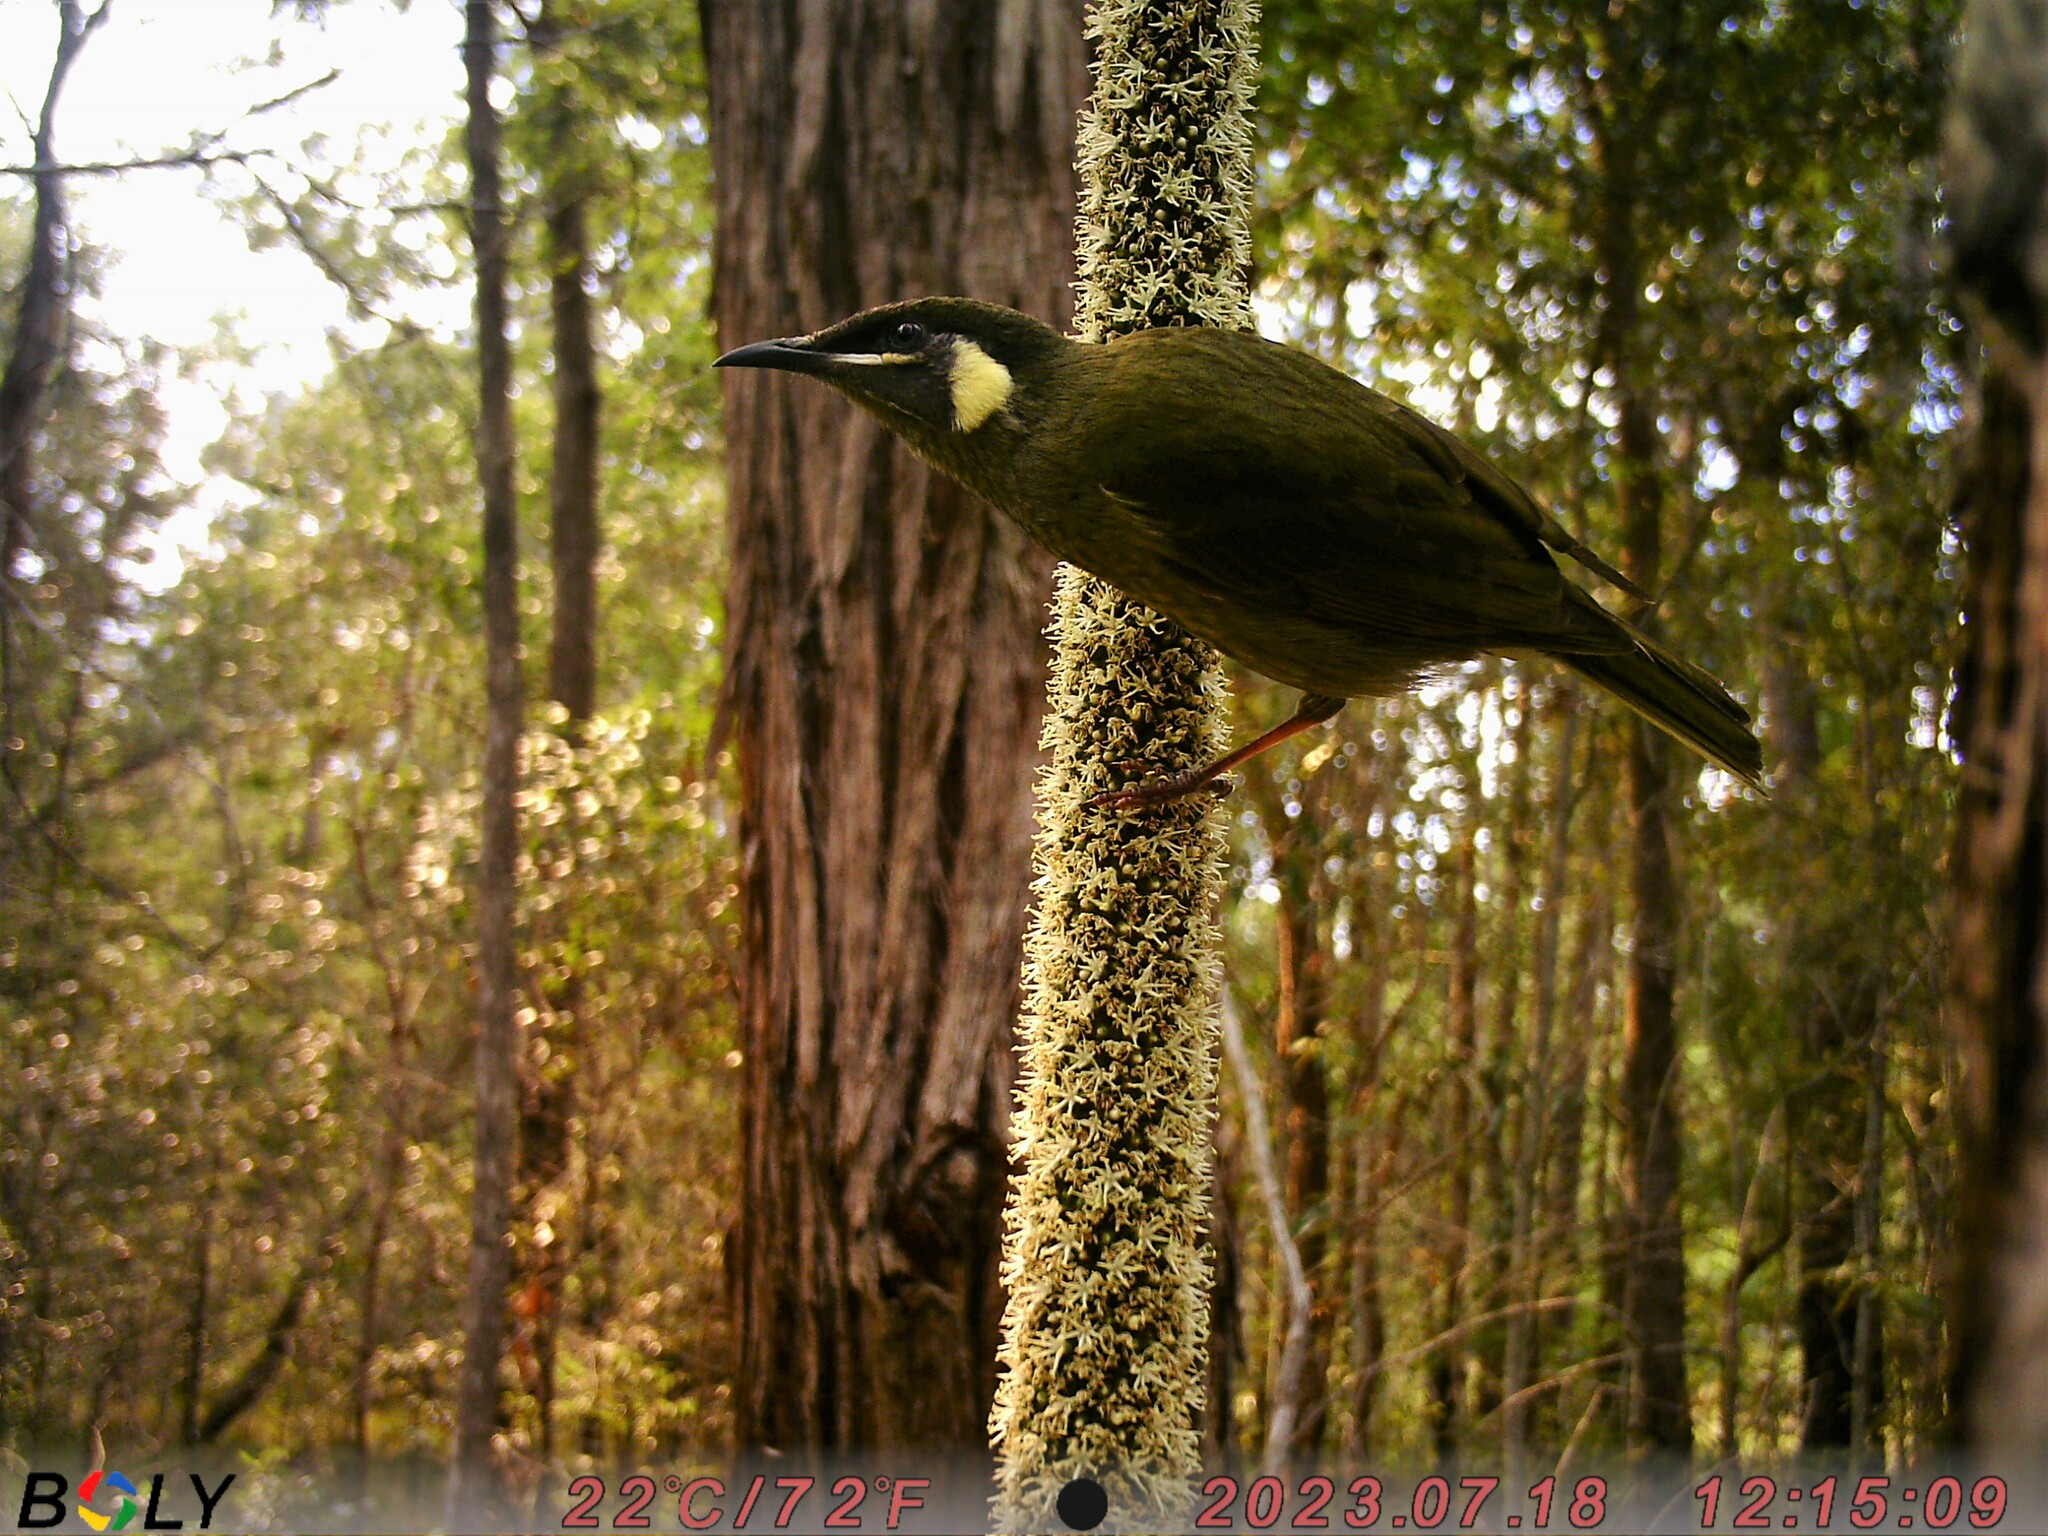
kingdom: Animalia
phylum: Chordata
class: Aves
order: Passeriformes
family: Meliphagidae
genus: Meliphaga
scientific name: Meliphaga lewinii
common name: Lewin's honeyeater
